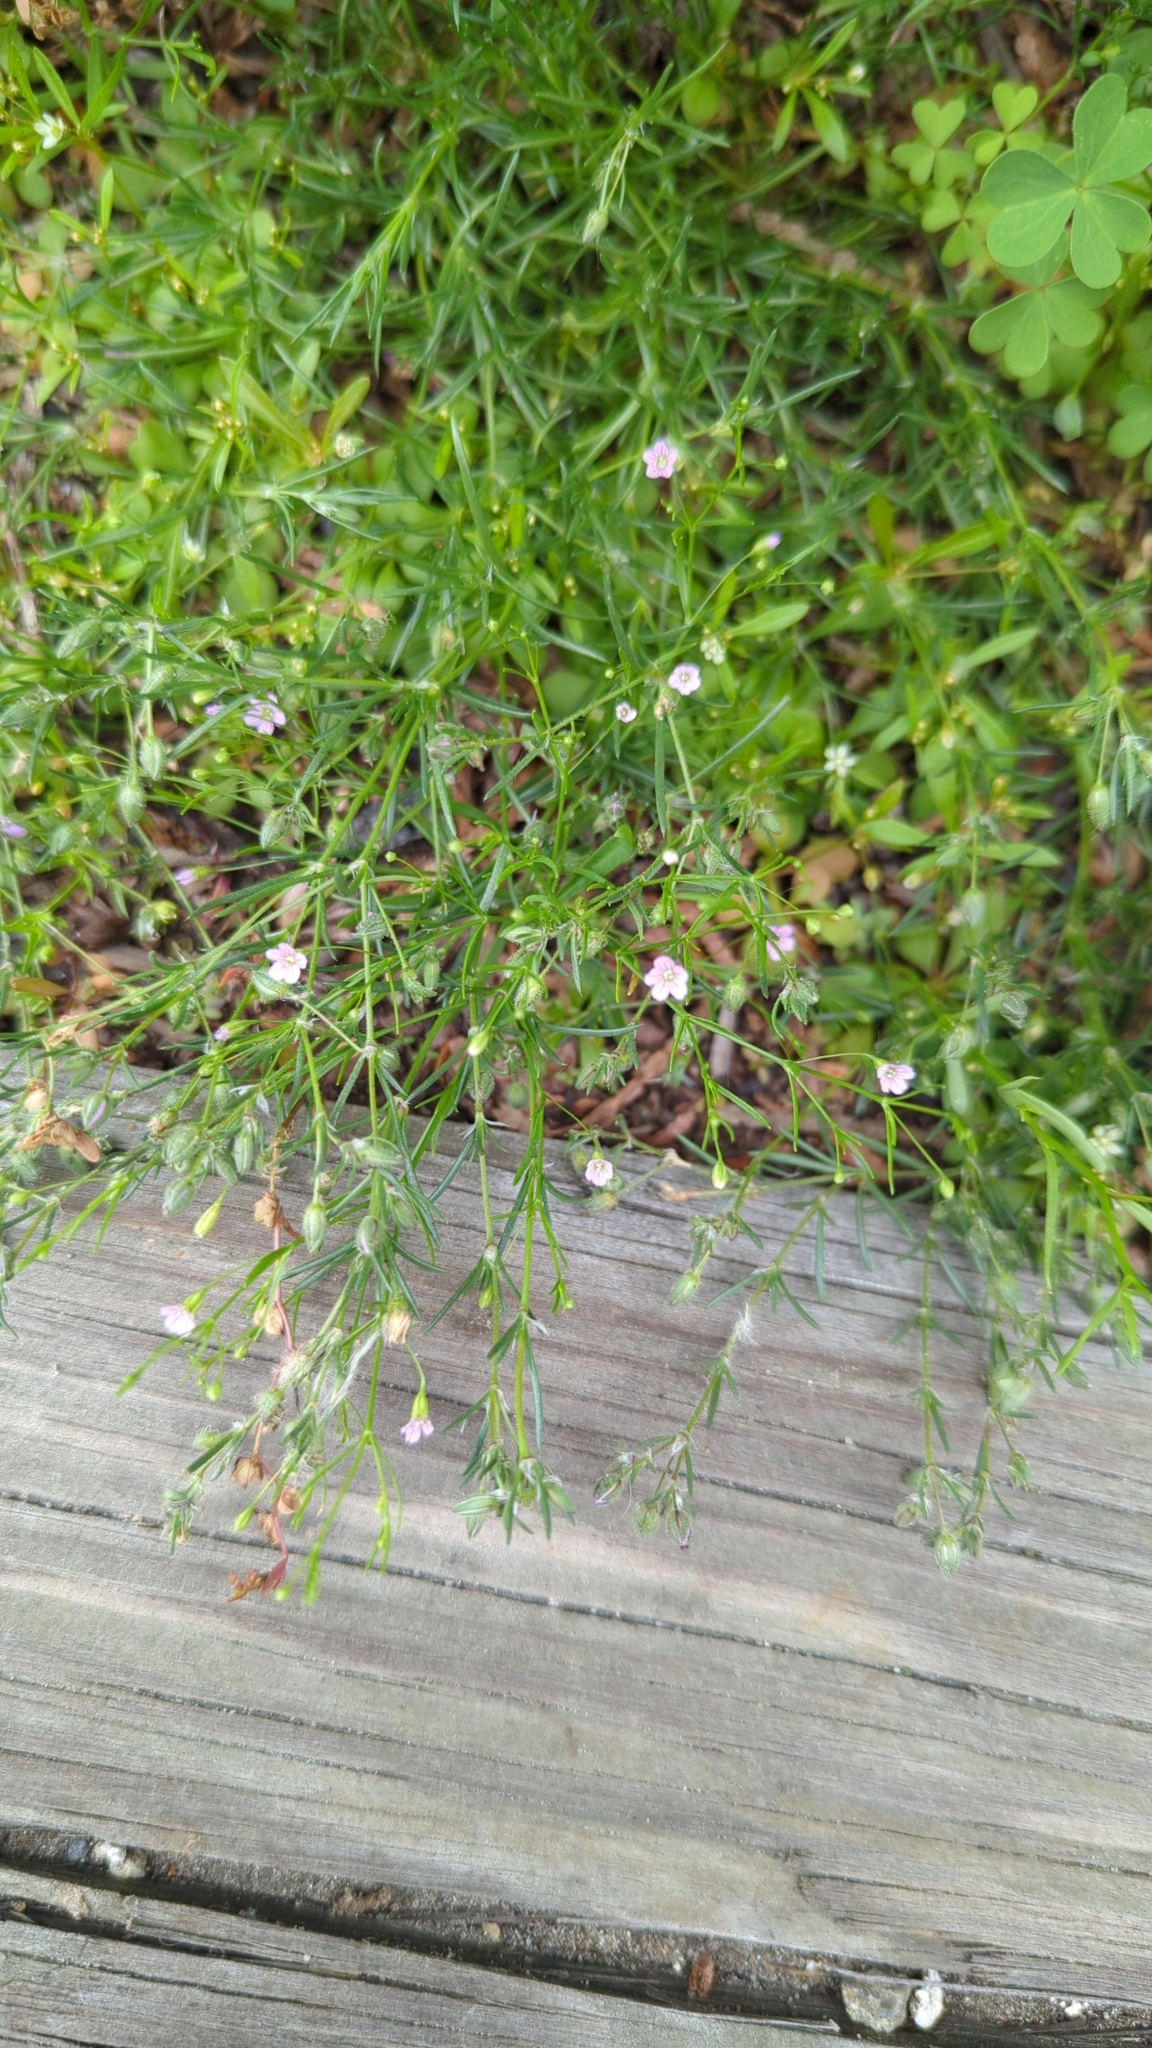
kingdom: Plantae
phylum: Tracheophyta
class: Magnoliopsida
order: Caryophyllales
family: Caryophyllaceae
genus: Psammophiliella
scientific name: Psammophiliella muralis
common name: Cushion baby's-breath
